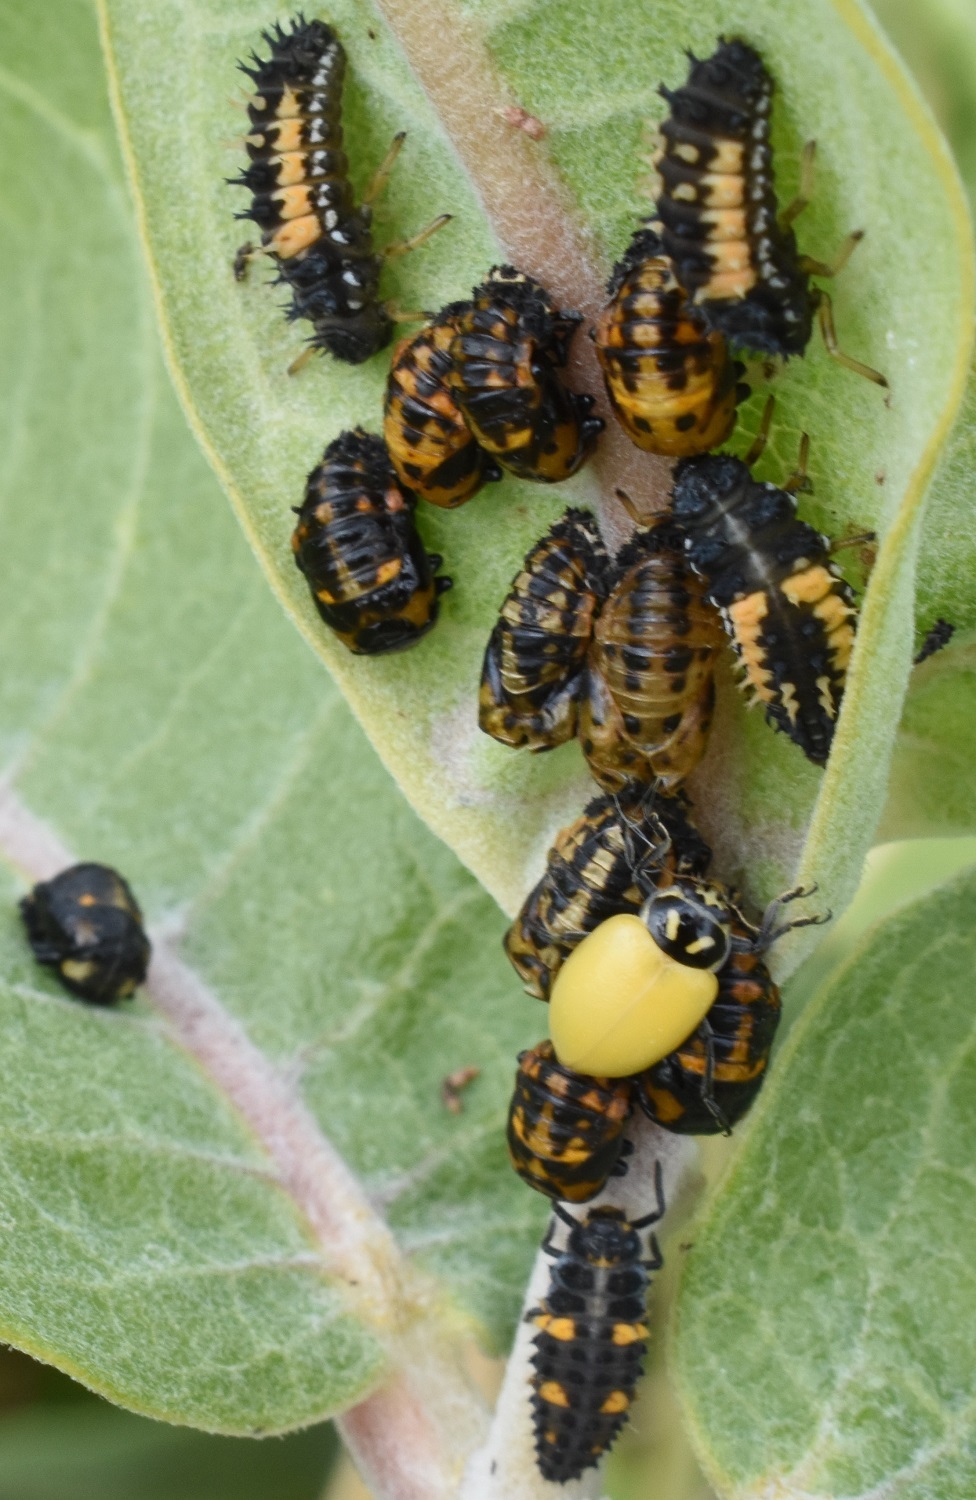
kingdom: Animalia
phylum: Arthropoda
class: Insecta
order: Coleoptera
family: Coccinellidae
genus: Hippodamia
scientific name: Hippodamia convergens
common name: Convergent lady beetle
